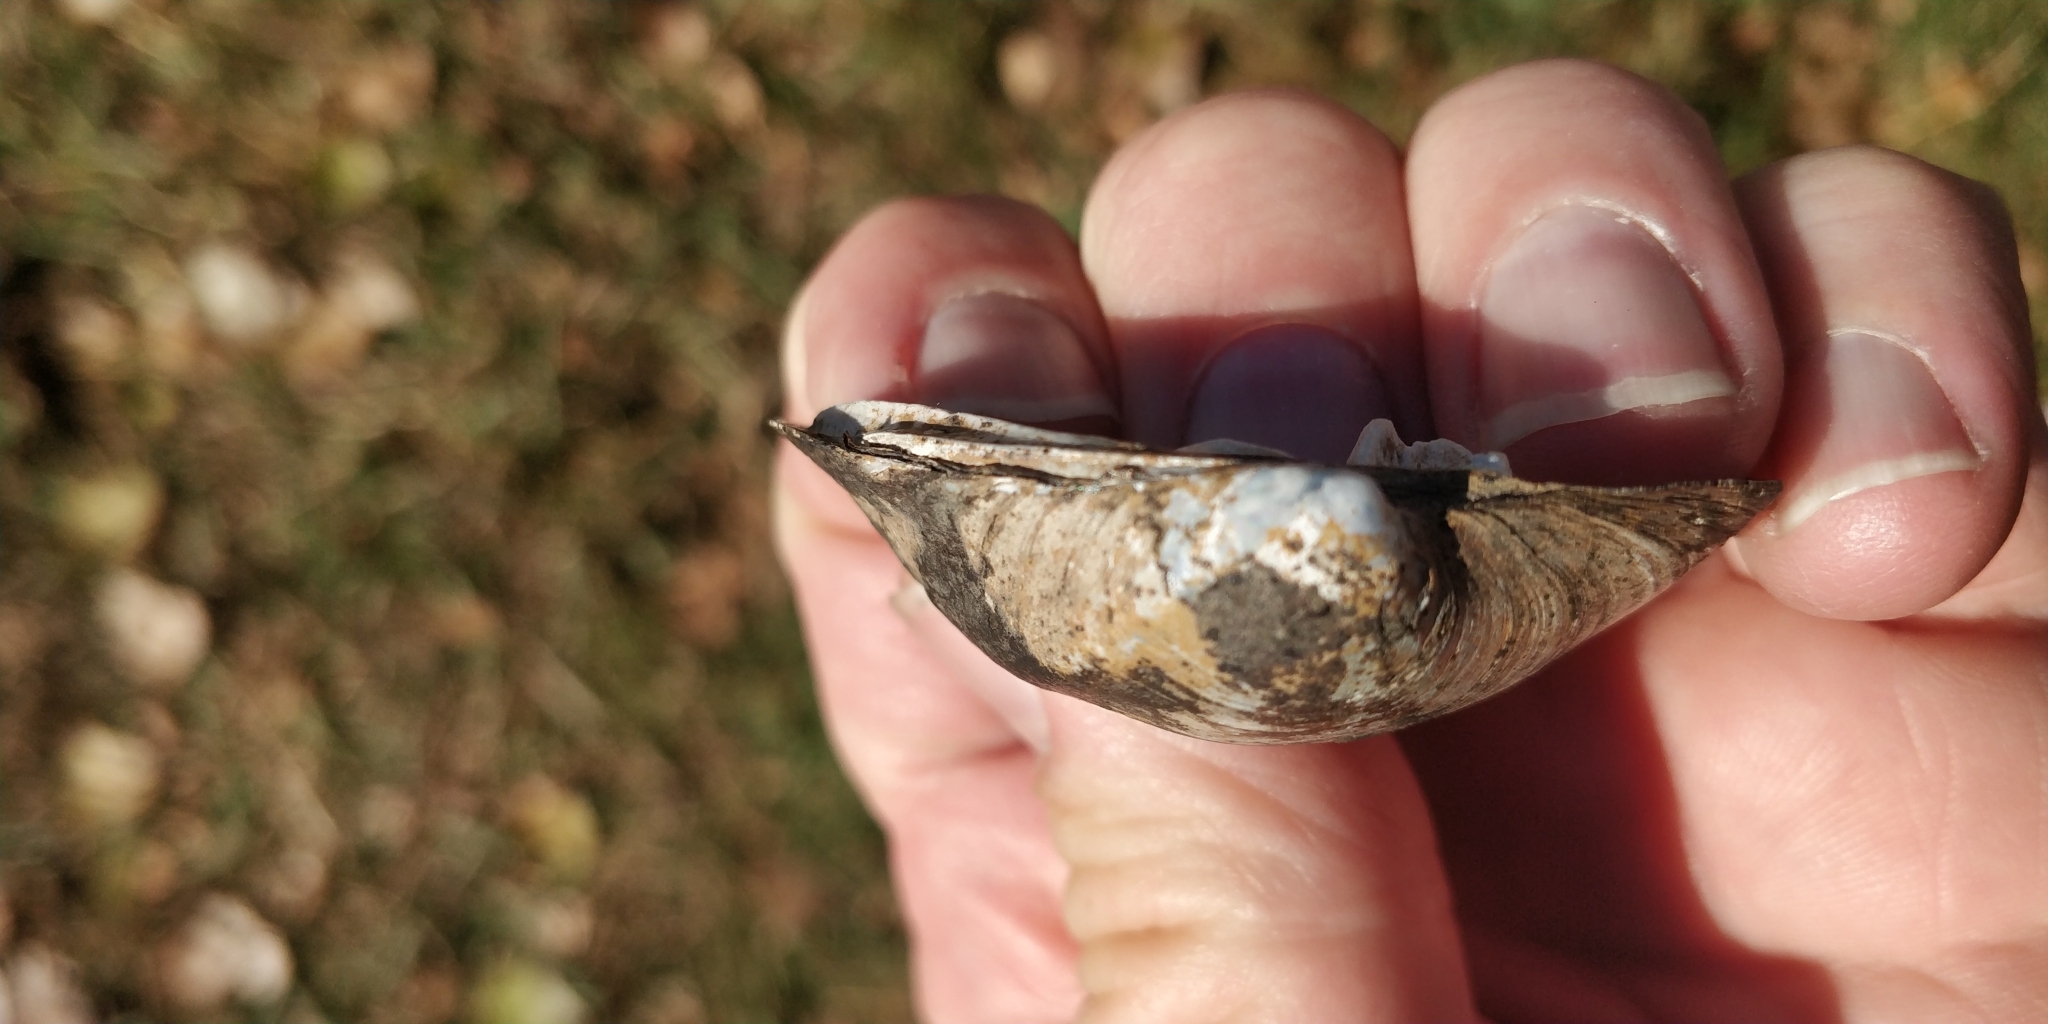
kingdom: Animalia
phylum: Mollusca
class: Bivalvia
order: Unionida
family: Unionidae
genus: Cyclonaias
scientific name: Cyclonaias pustulosa
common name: Pimpleback
